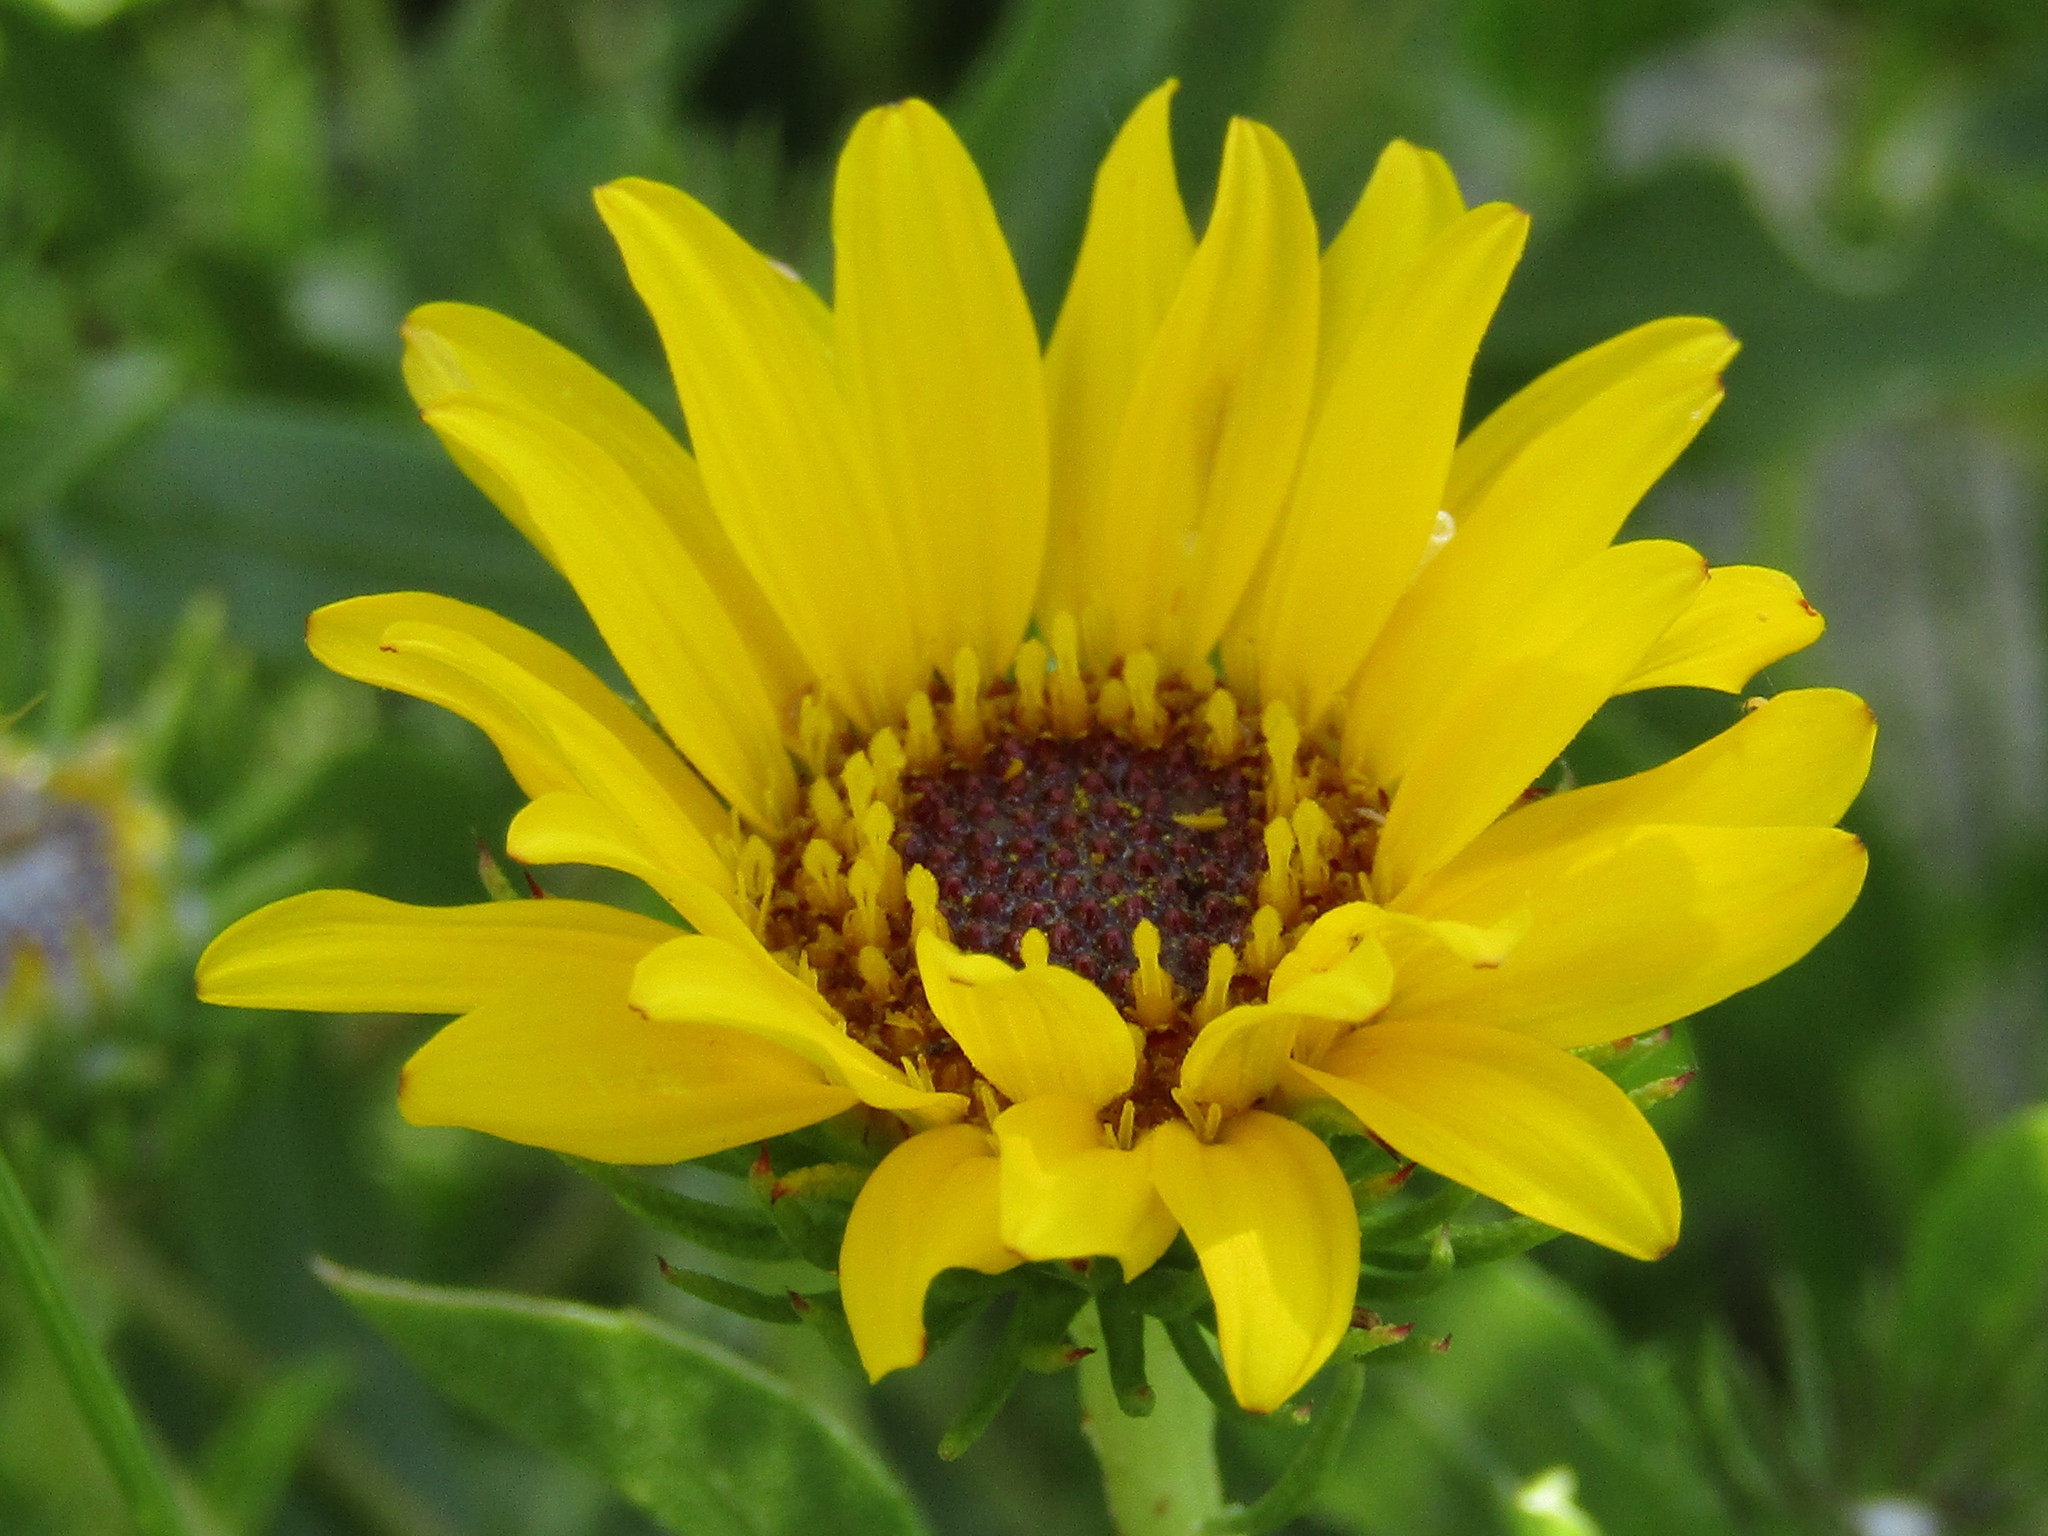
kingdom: Plantae
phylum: Tracheophyta
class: Magnoliopsida
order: Asterales
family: Asteraceae
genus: Grindelia
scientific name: Grindelia pulchella
